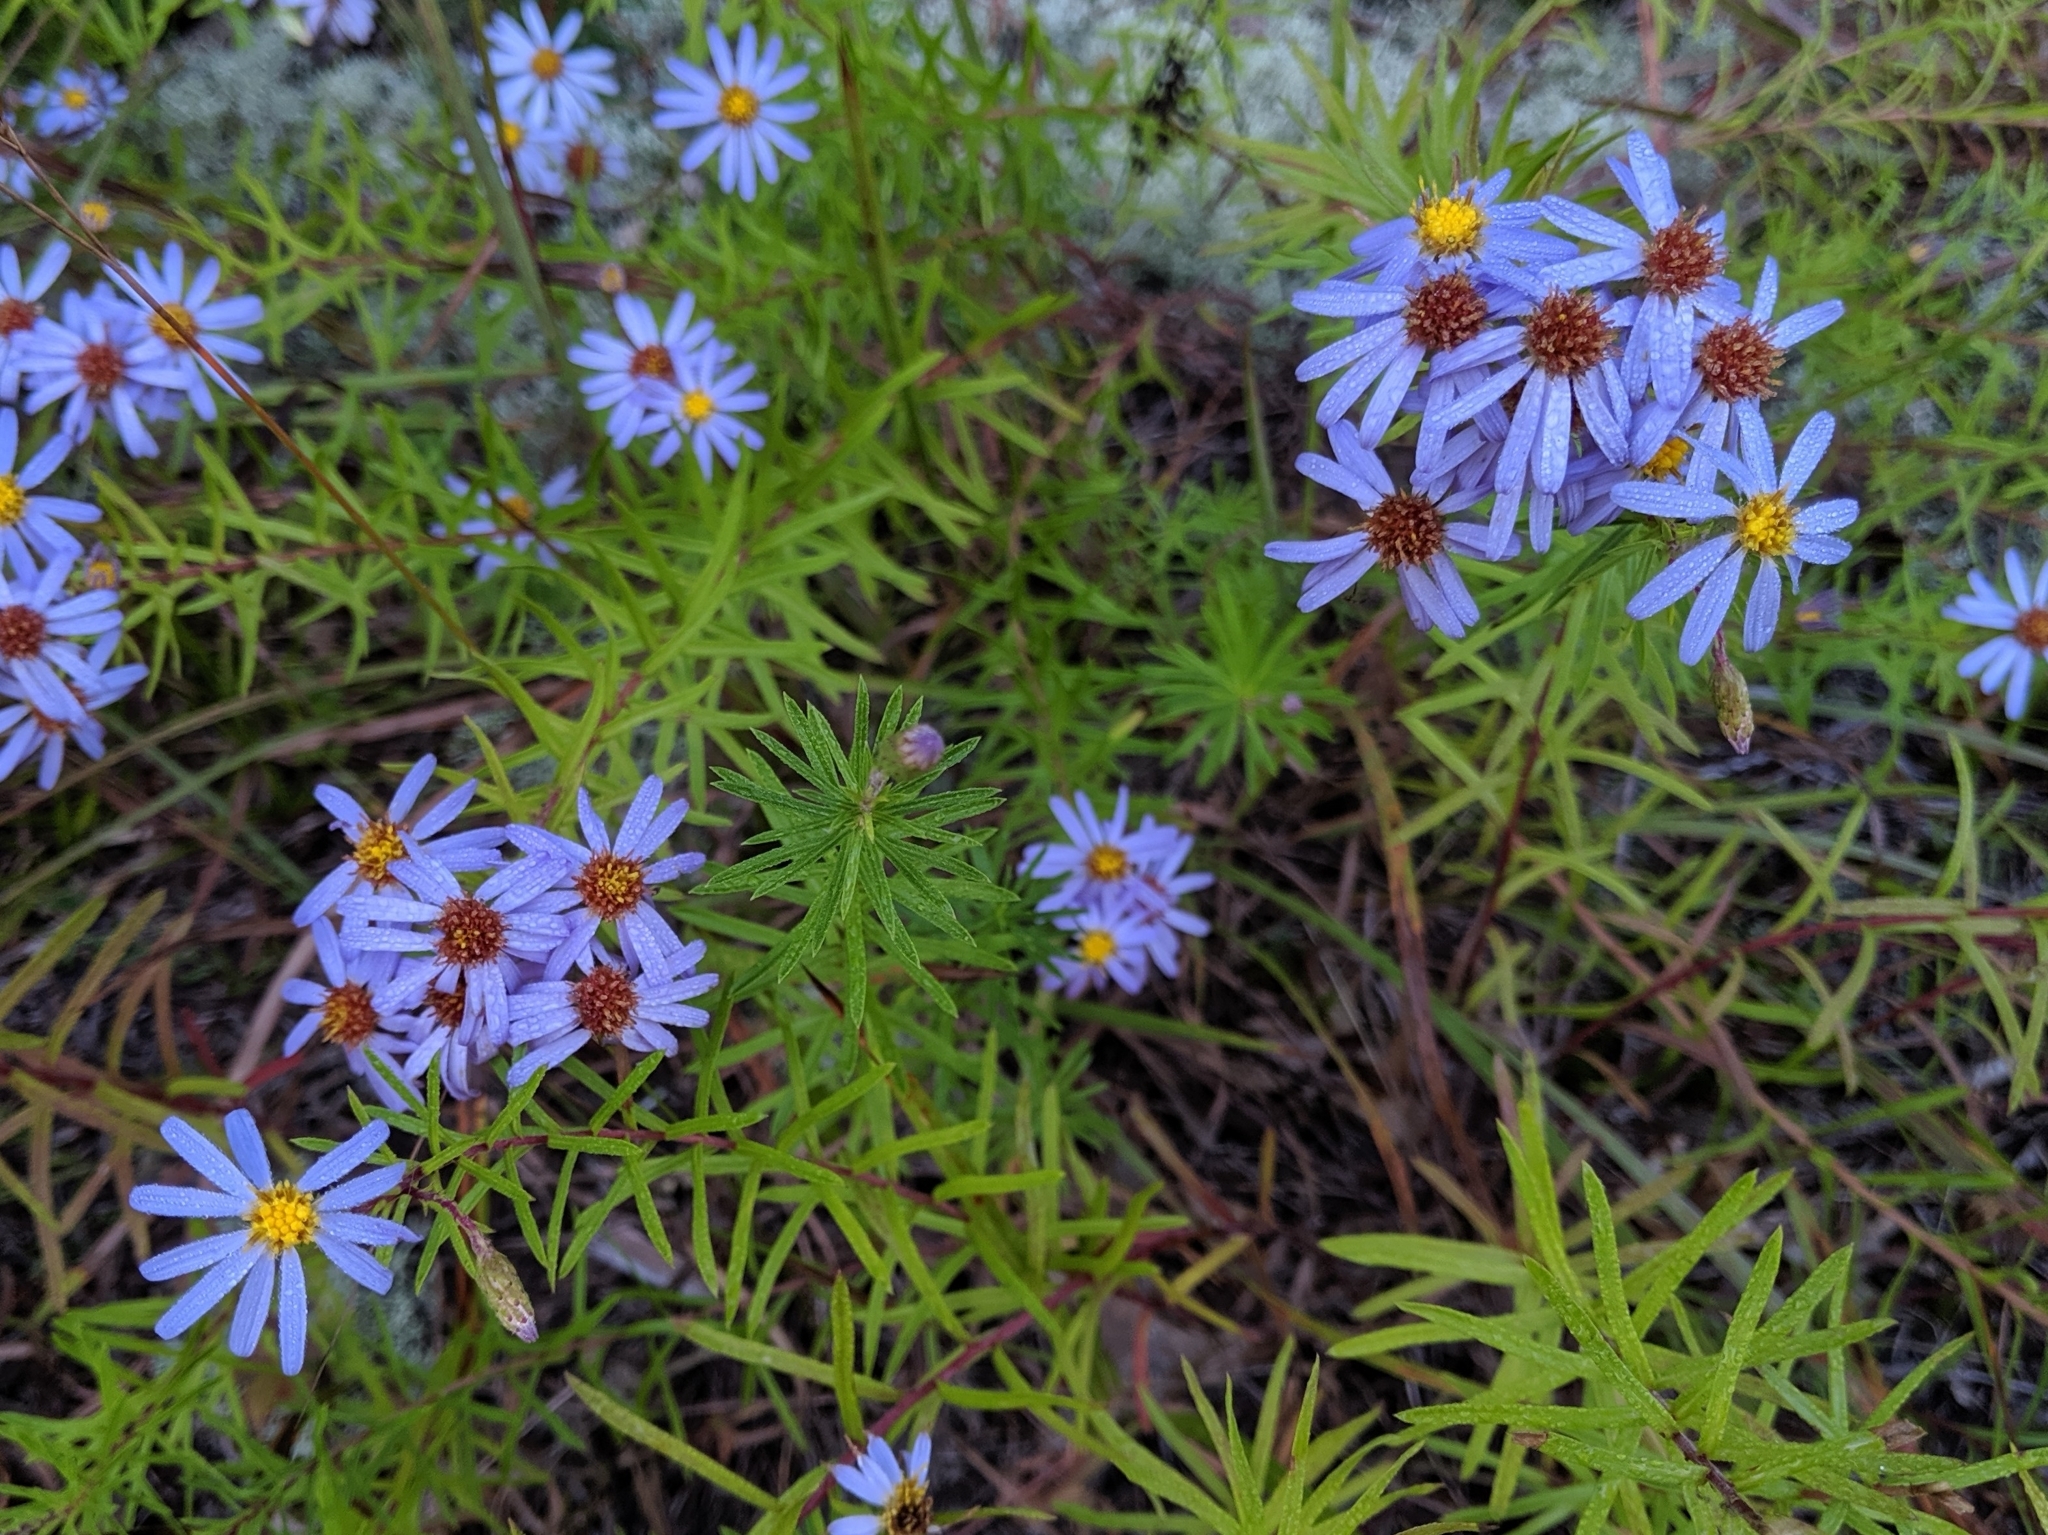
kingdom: Plantae
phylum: Tracheophyta
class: Magnoliopsida
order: Asterales
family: Asteraceae
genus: Ionactis
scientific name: Ionactis linariifolia
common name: Flax-leaf aster
